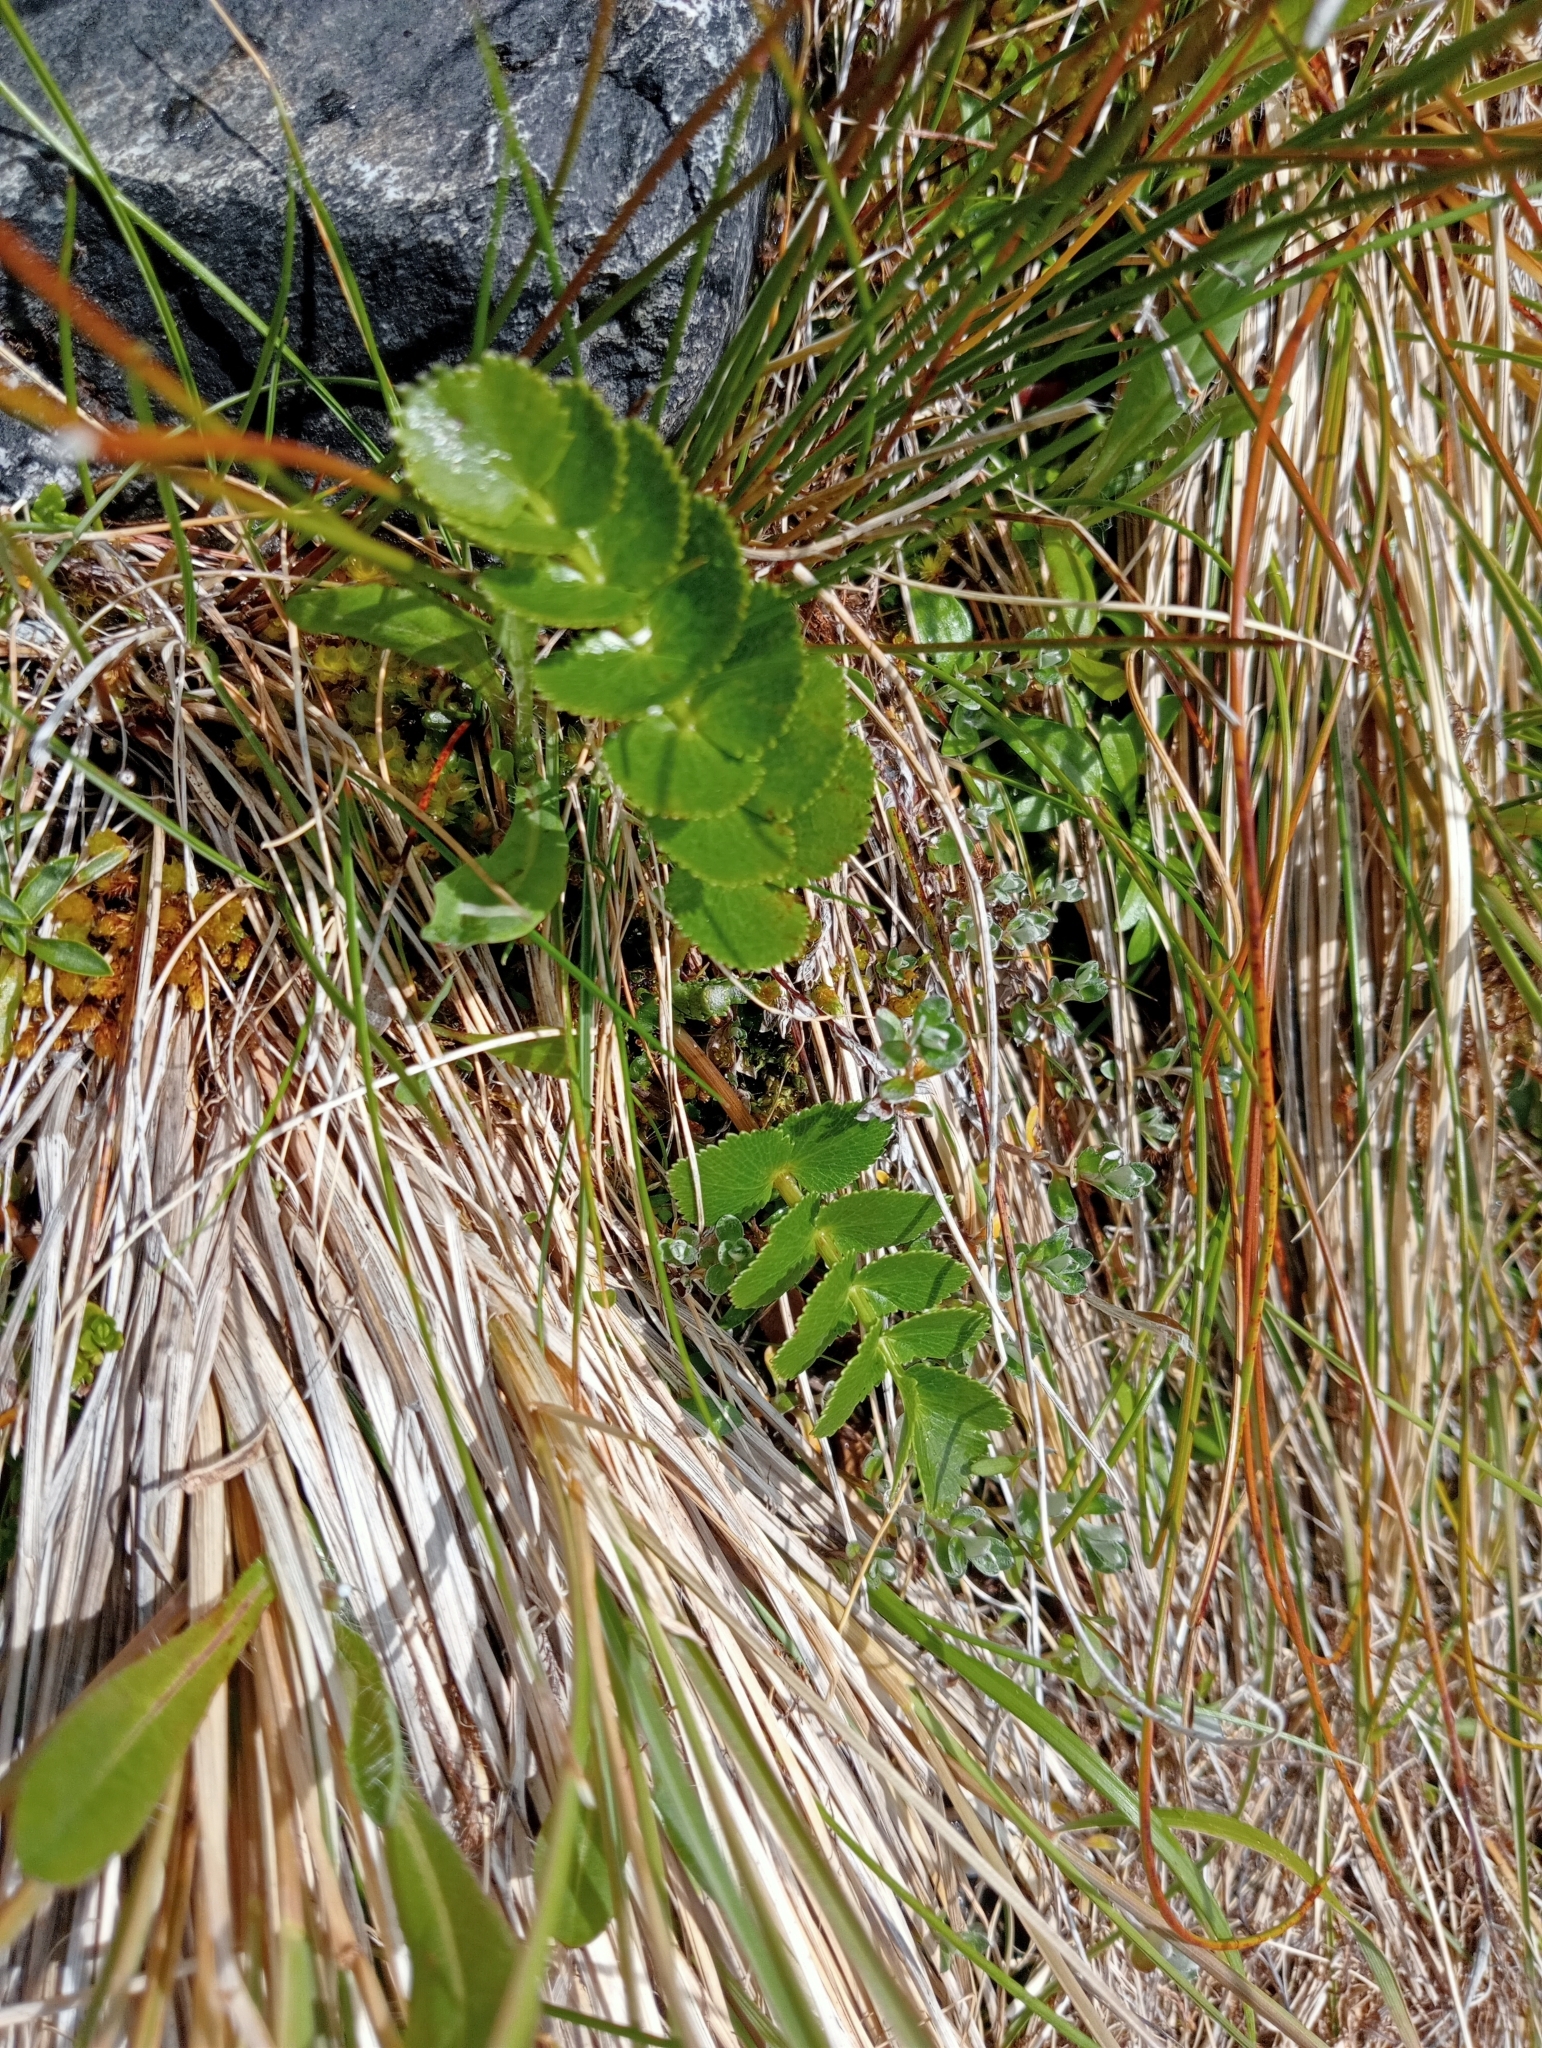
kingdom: Plantae
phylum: Tracheophyta
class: Magnoliopsida
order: Apiales
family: Apiaceae
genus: Gingidia
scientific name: Gingidia montana
